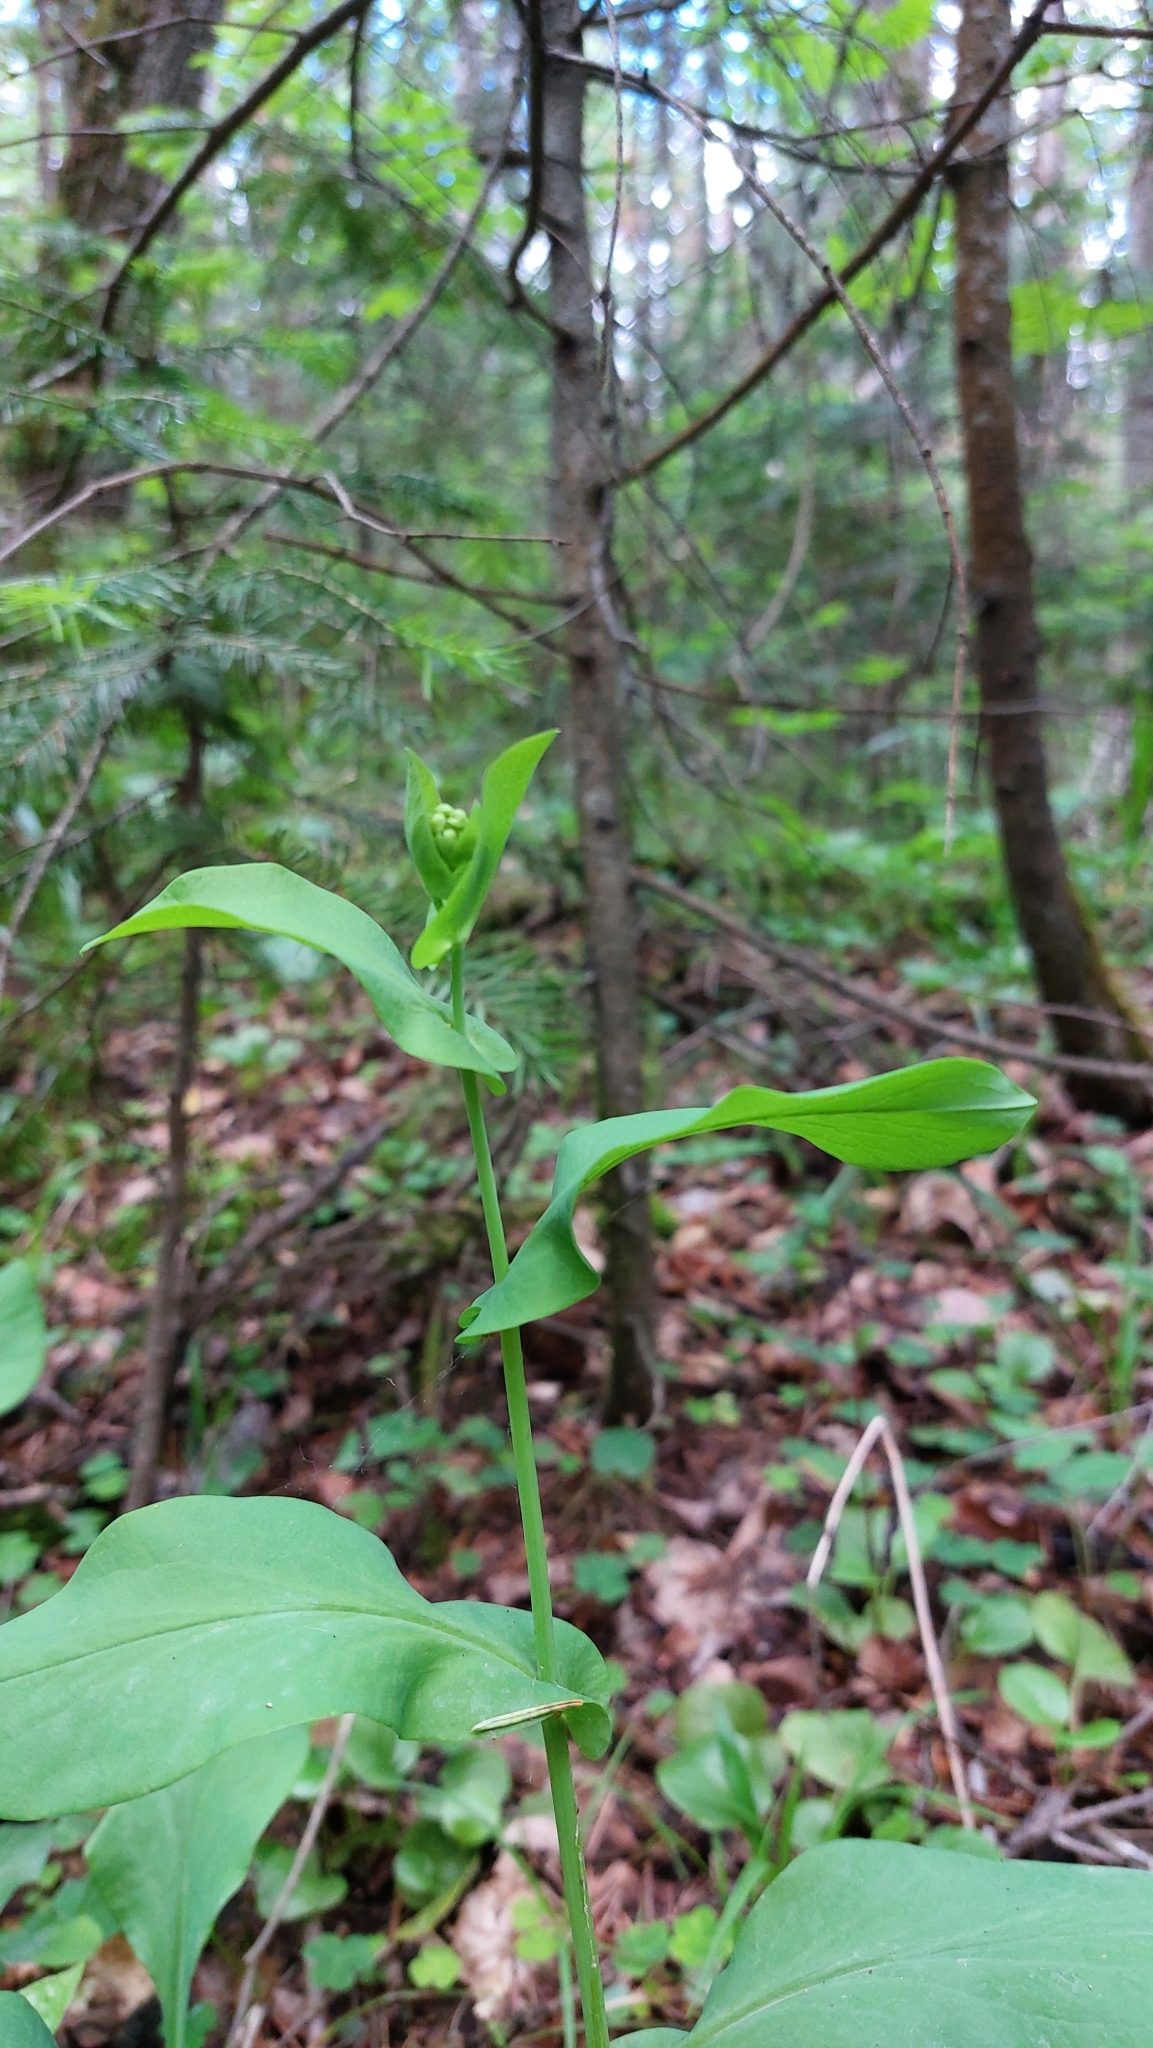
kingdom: Plantae
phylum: Tracheophyta
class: Magnoliopsida
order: Apiales
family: Apiaceae
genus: Bupleurum
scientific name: Bupleurum aureum
